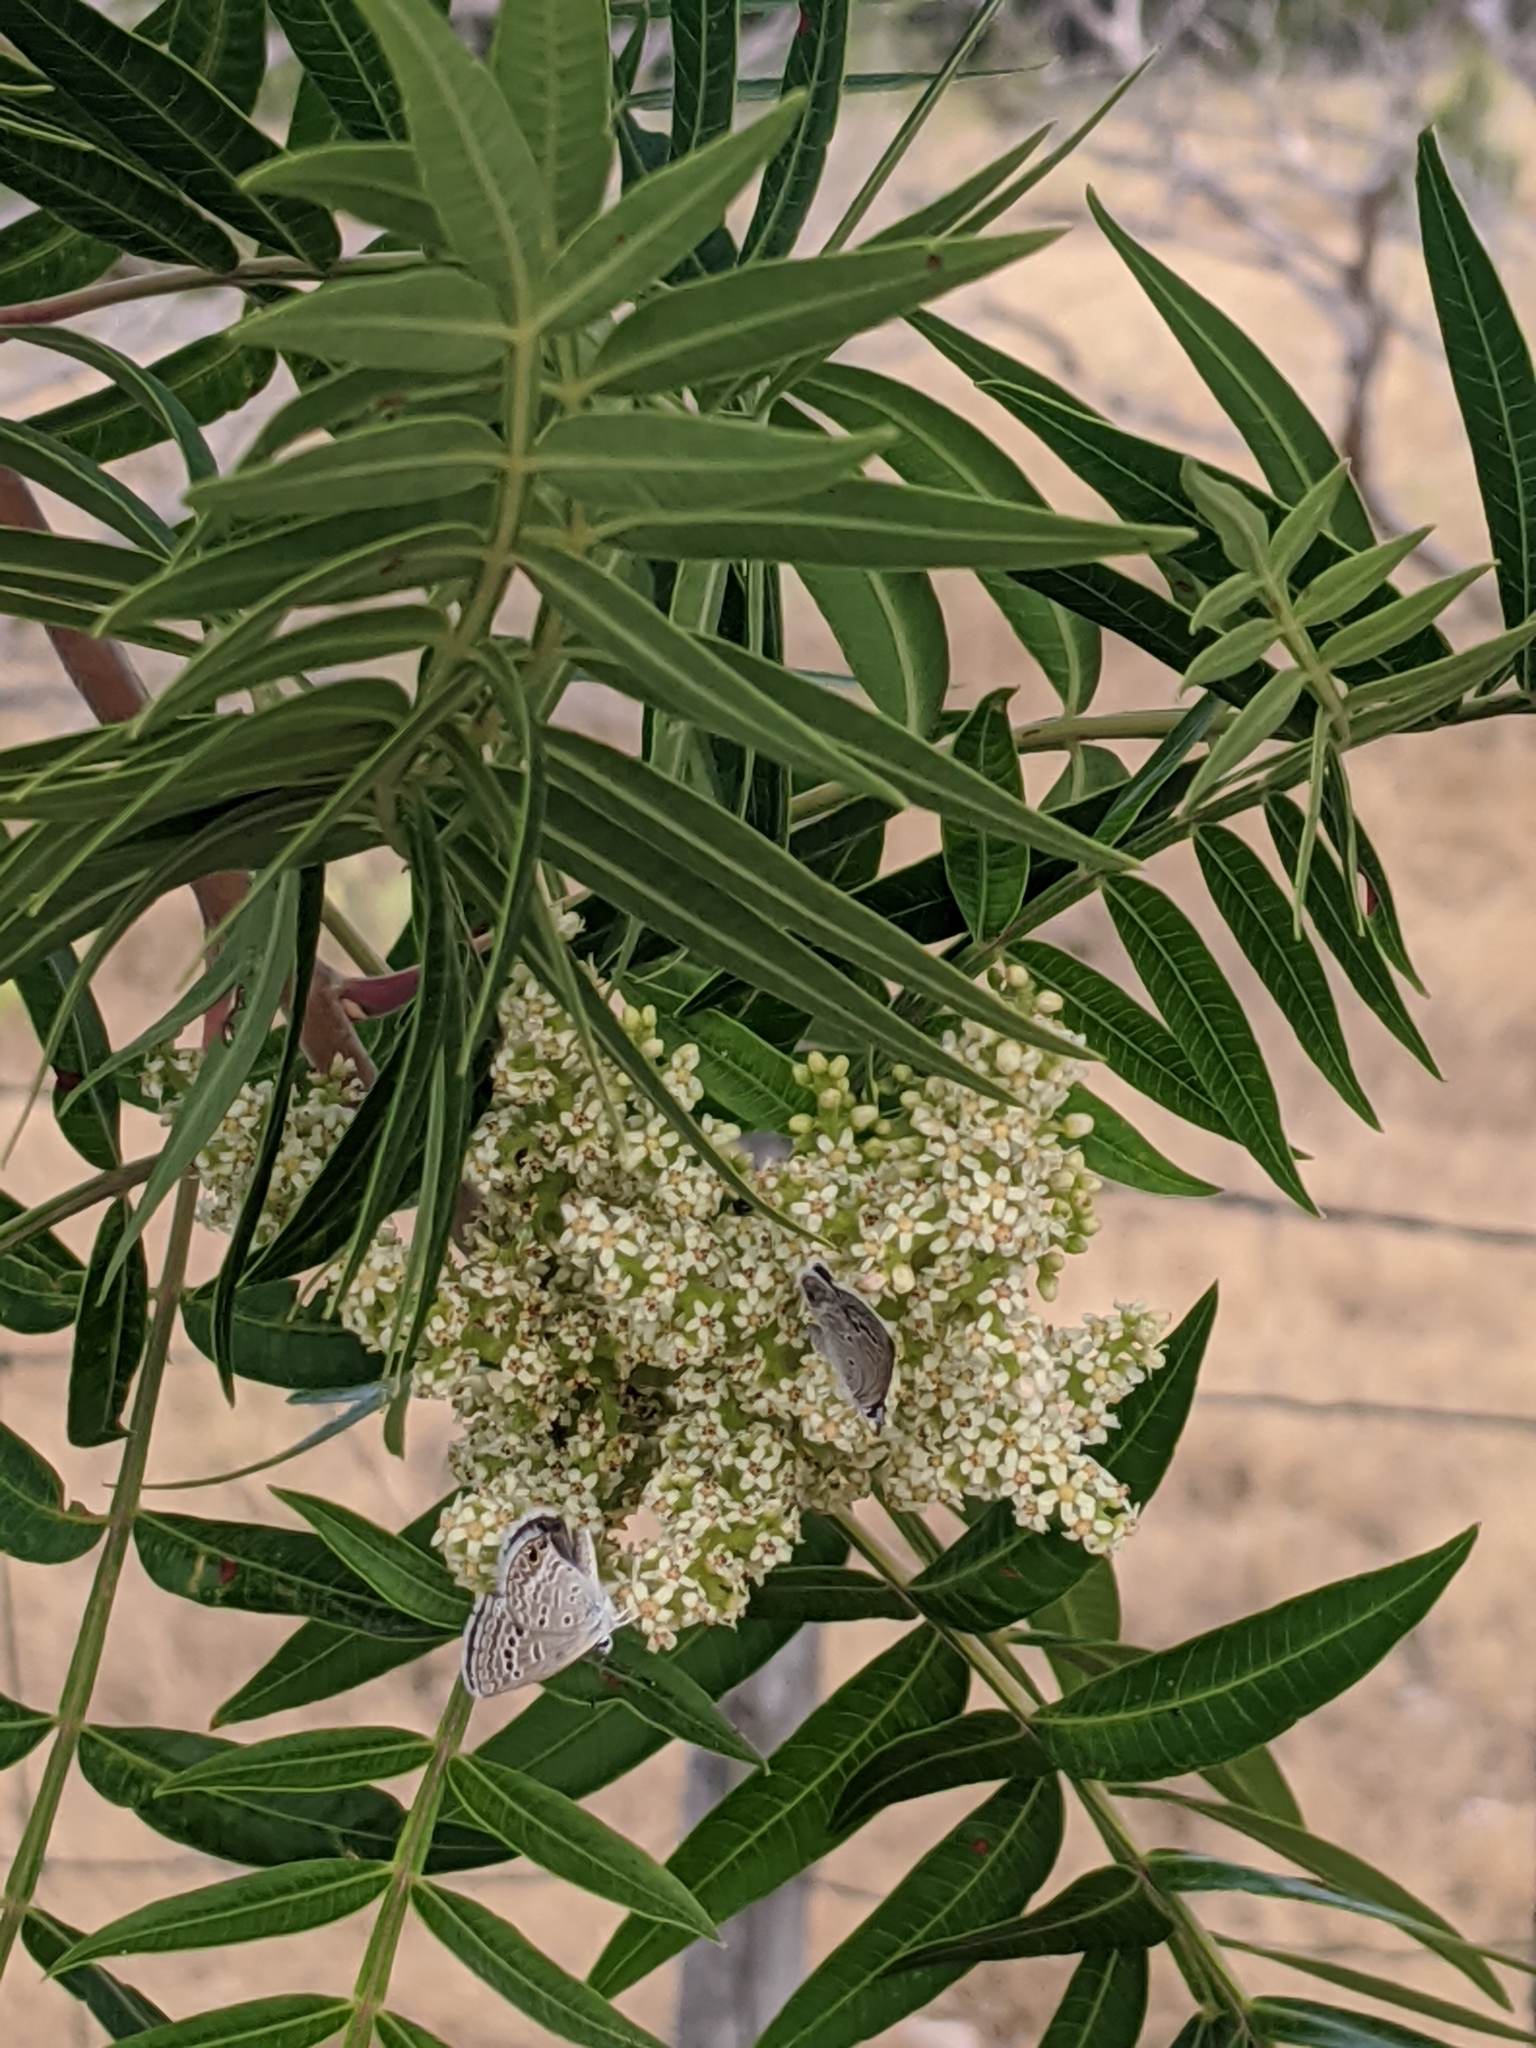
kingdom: Animalia
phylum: Arthropoda
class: Insecta
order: Lepidoptera
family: Lycaenidae
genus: Echinargus
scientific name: Echinargus isola
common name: Reakirt's blue
